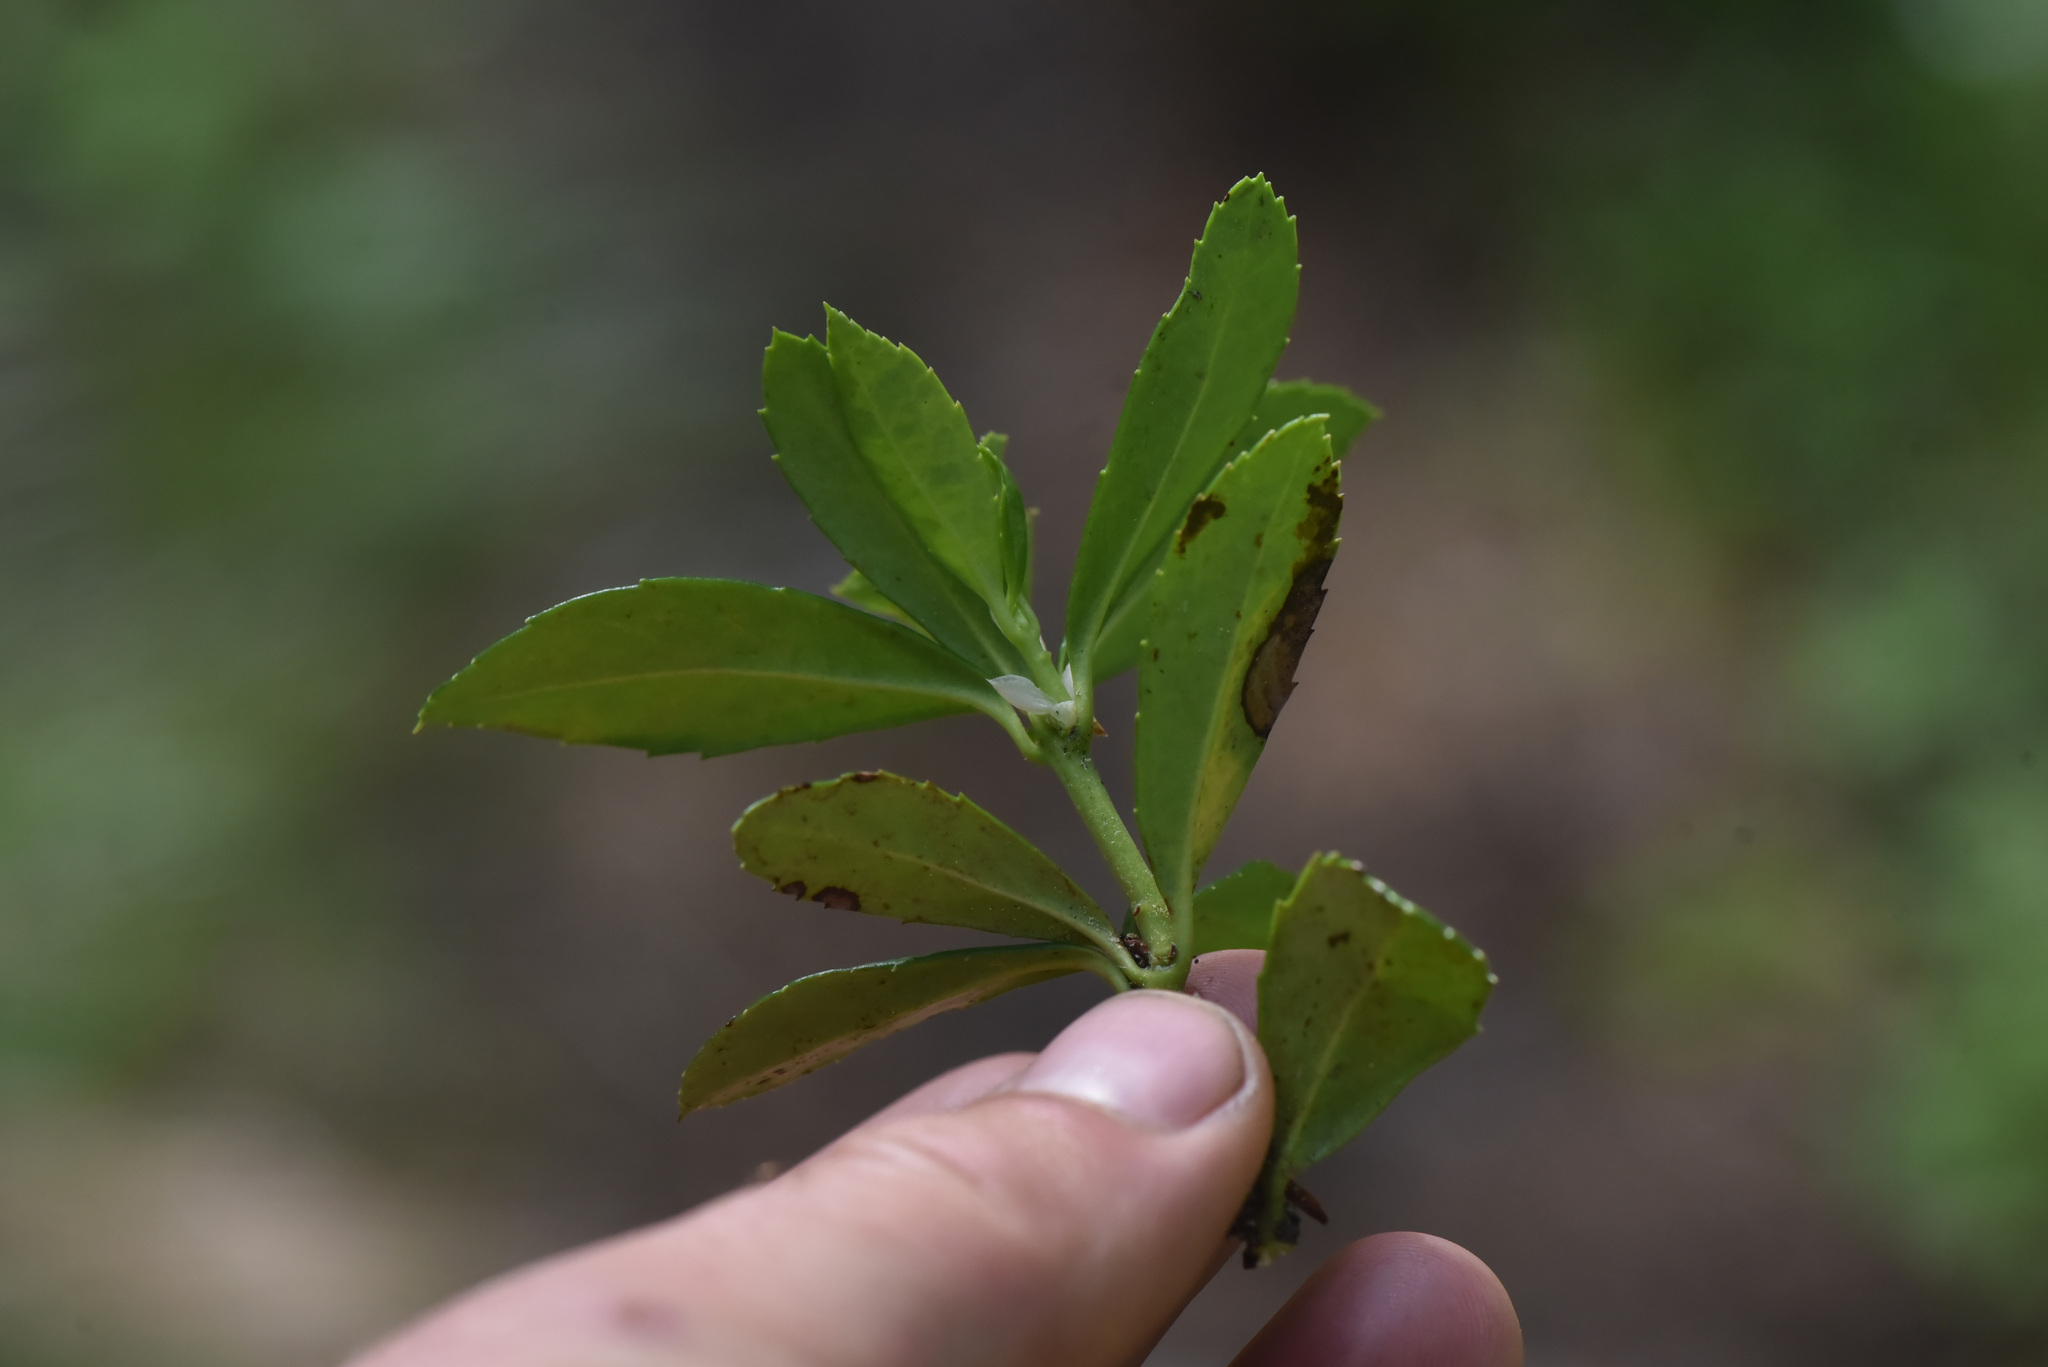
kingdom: Plantae
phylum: Tracheophyta
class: Magnoliopsida
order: Ericales
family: Ericaceae
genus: Chimaphila
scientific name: Chimaphila umbellata
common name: Pipsissewa
